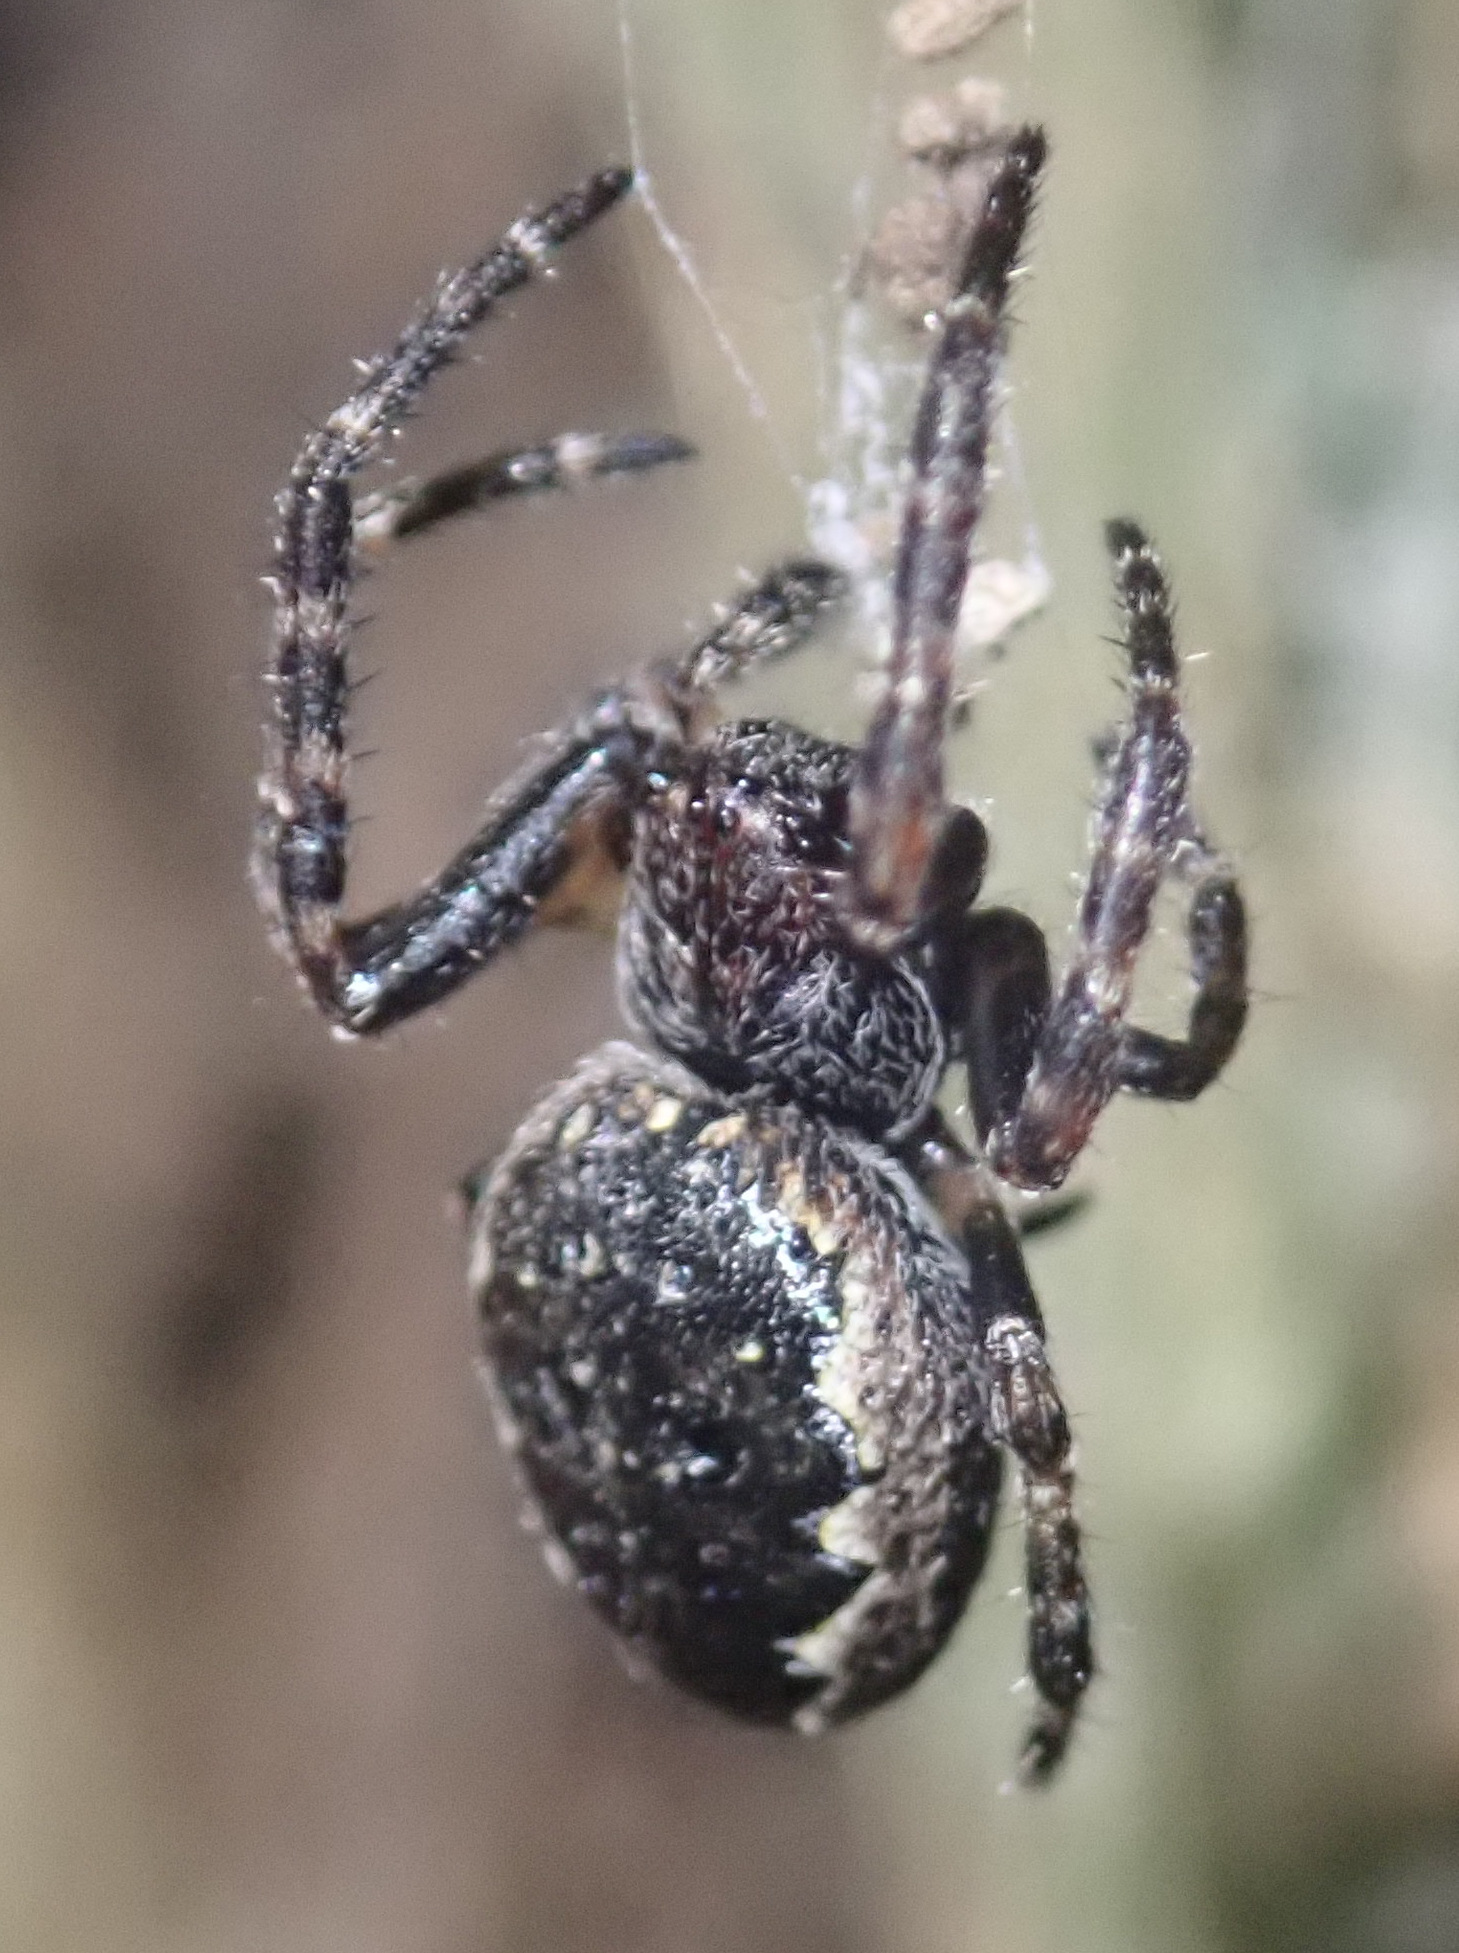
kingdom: Animalia
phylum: Arthropoda
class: Arachnida
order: Araneae
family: Araneidae
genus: Nuctenea
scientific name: Nuctenea umbratica
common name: Toad spider
